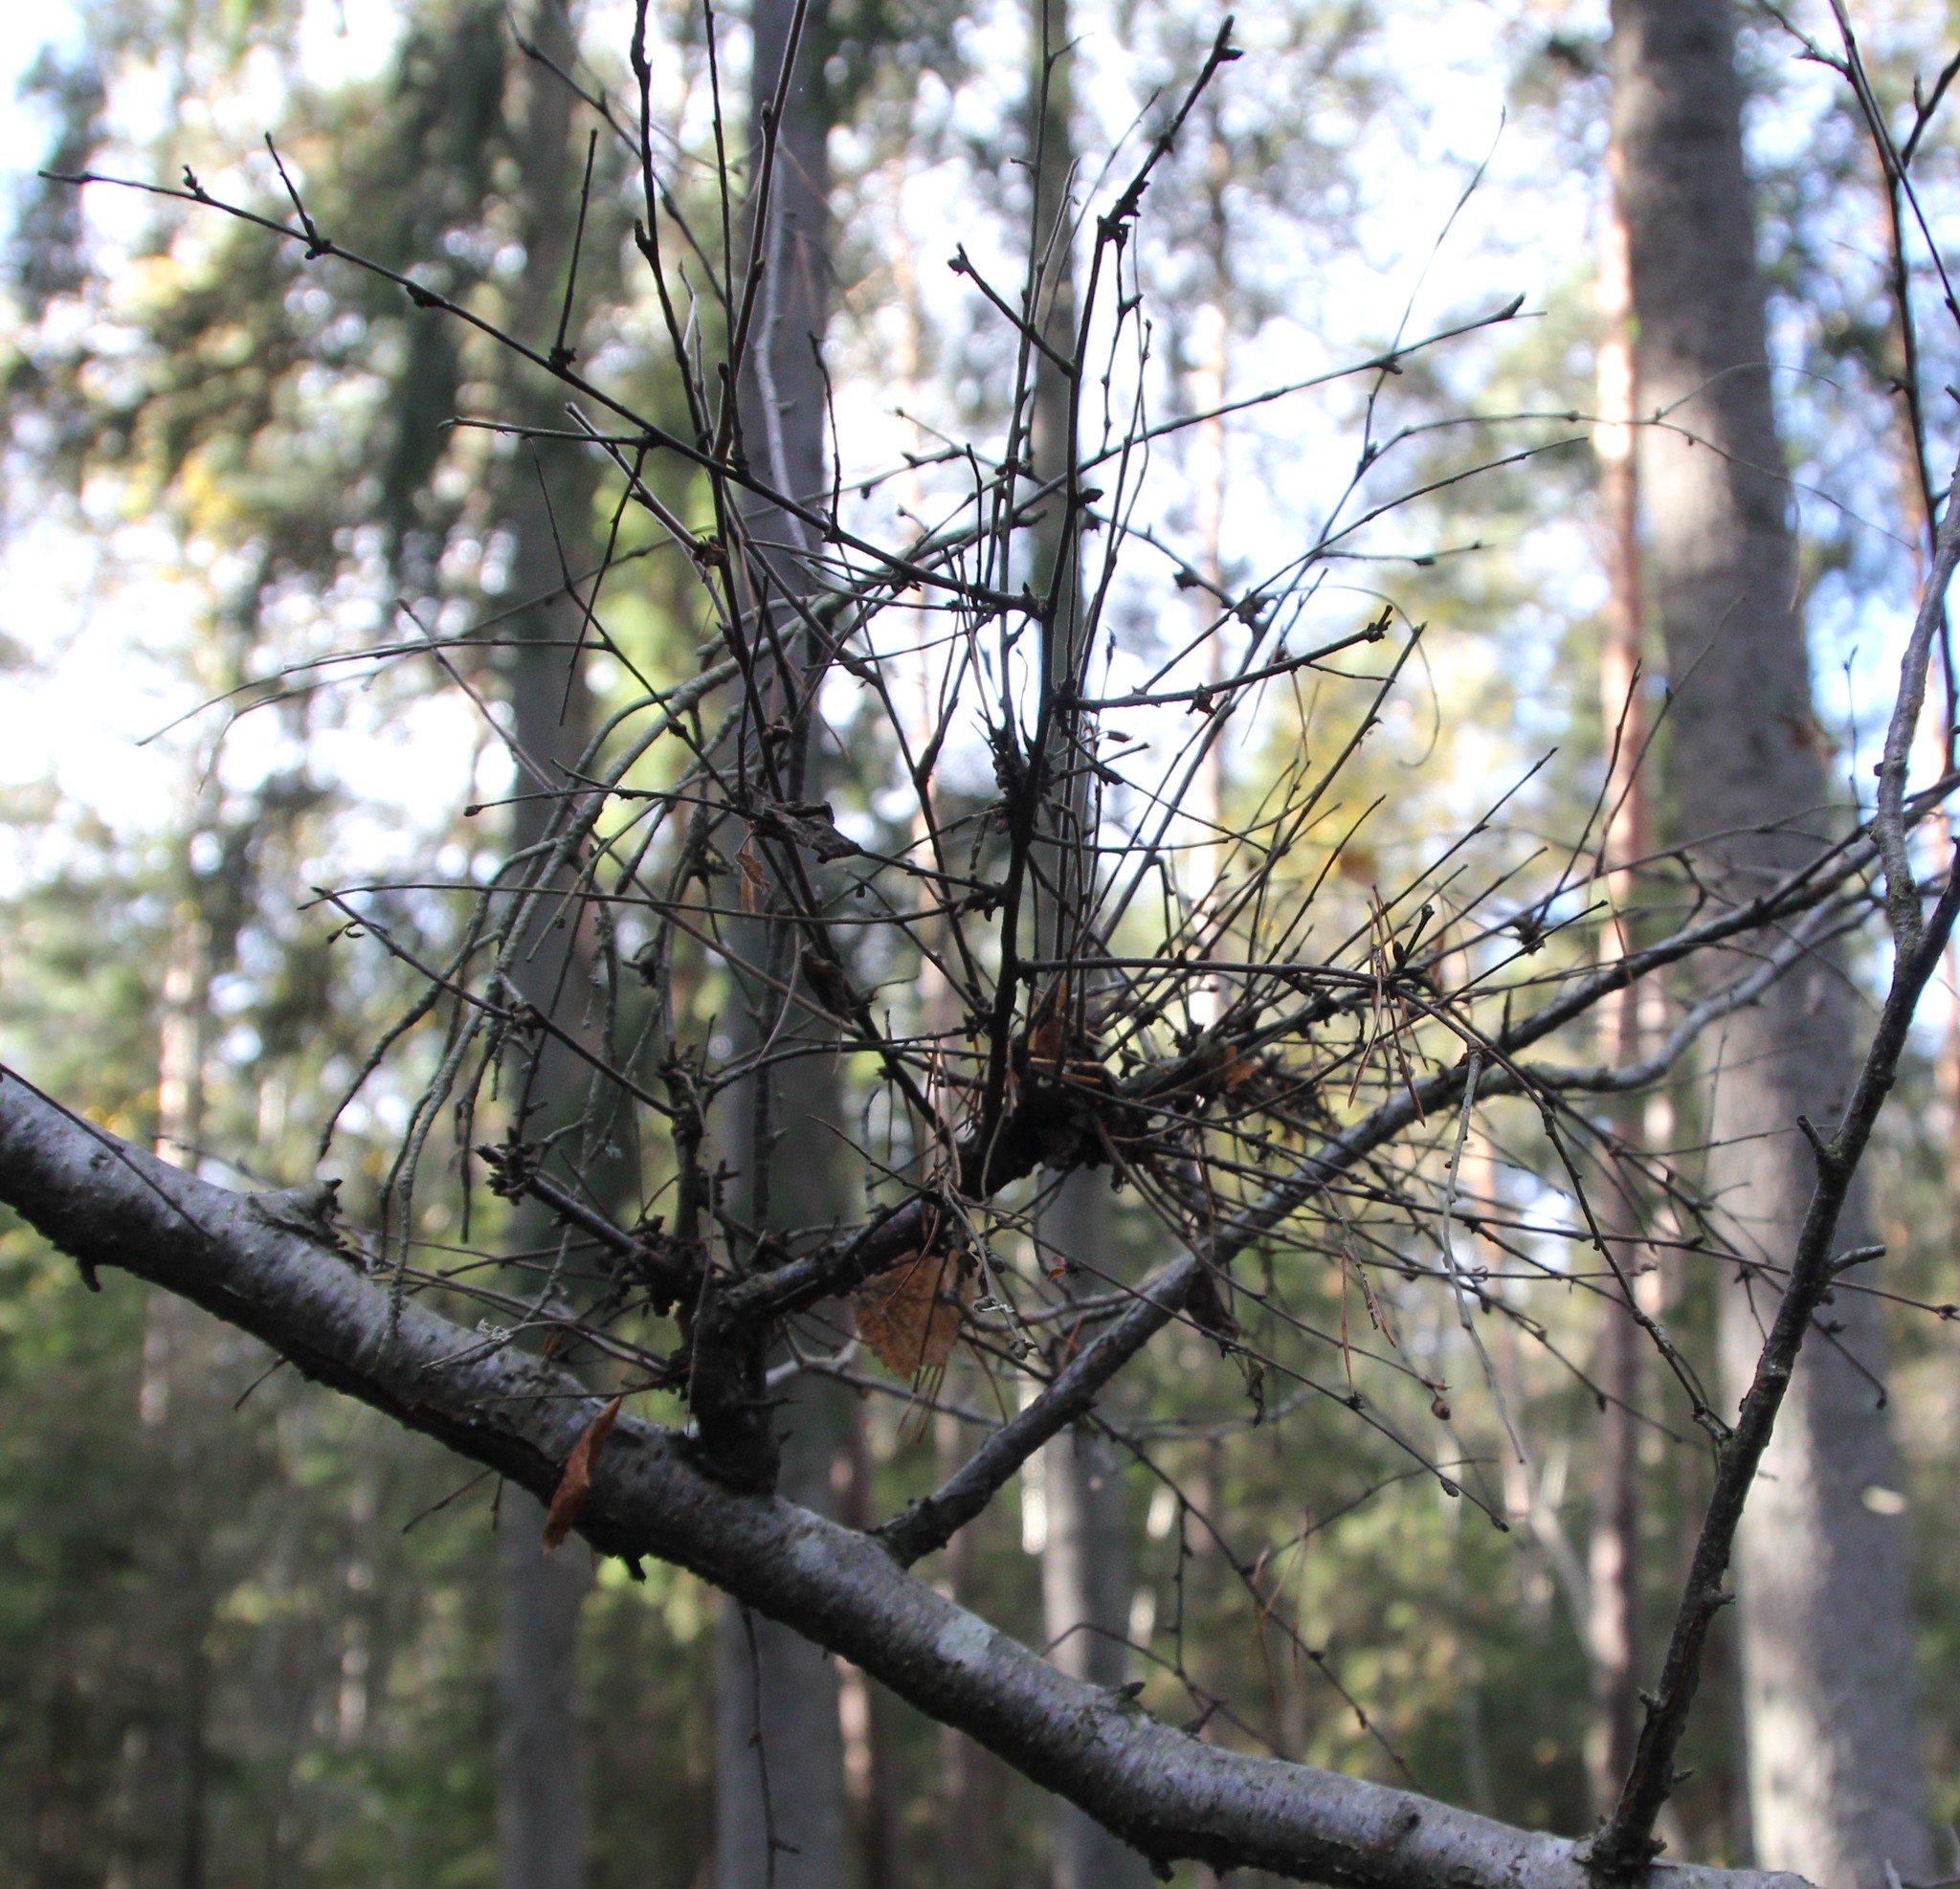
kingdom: Fungi
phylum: Ascomycota
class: Taphrinomycetes
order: Taphrinales
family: Taphrinaceae
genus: Taphrina
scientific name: Taphrina betulina
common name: Birch besom
